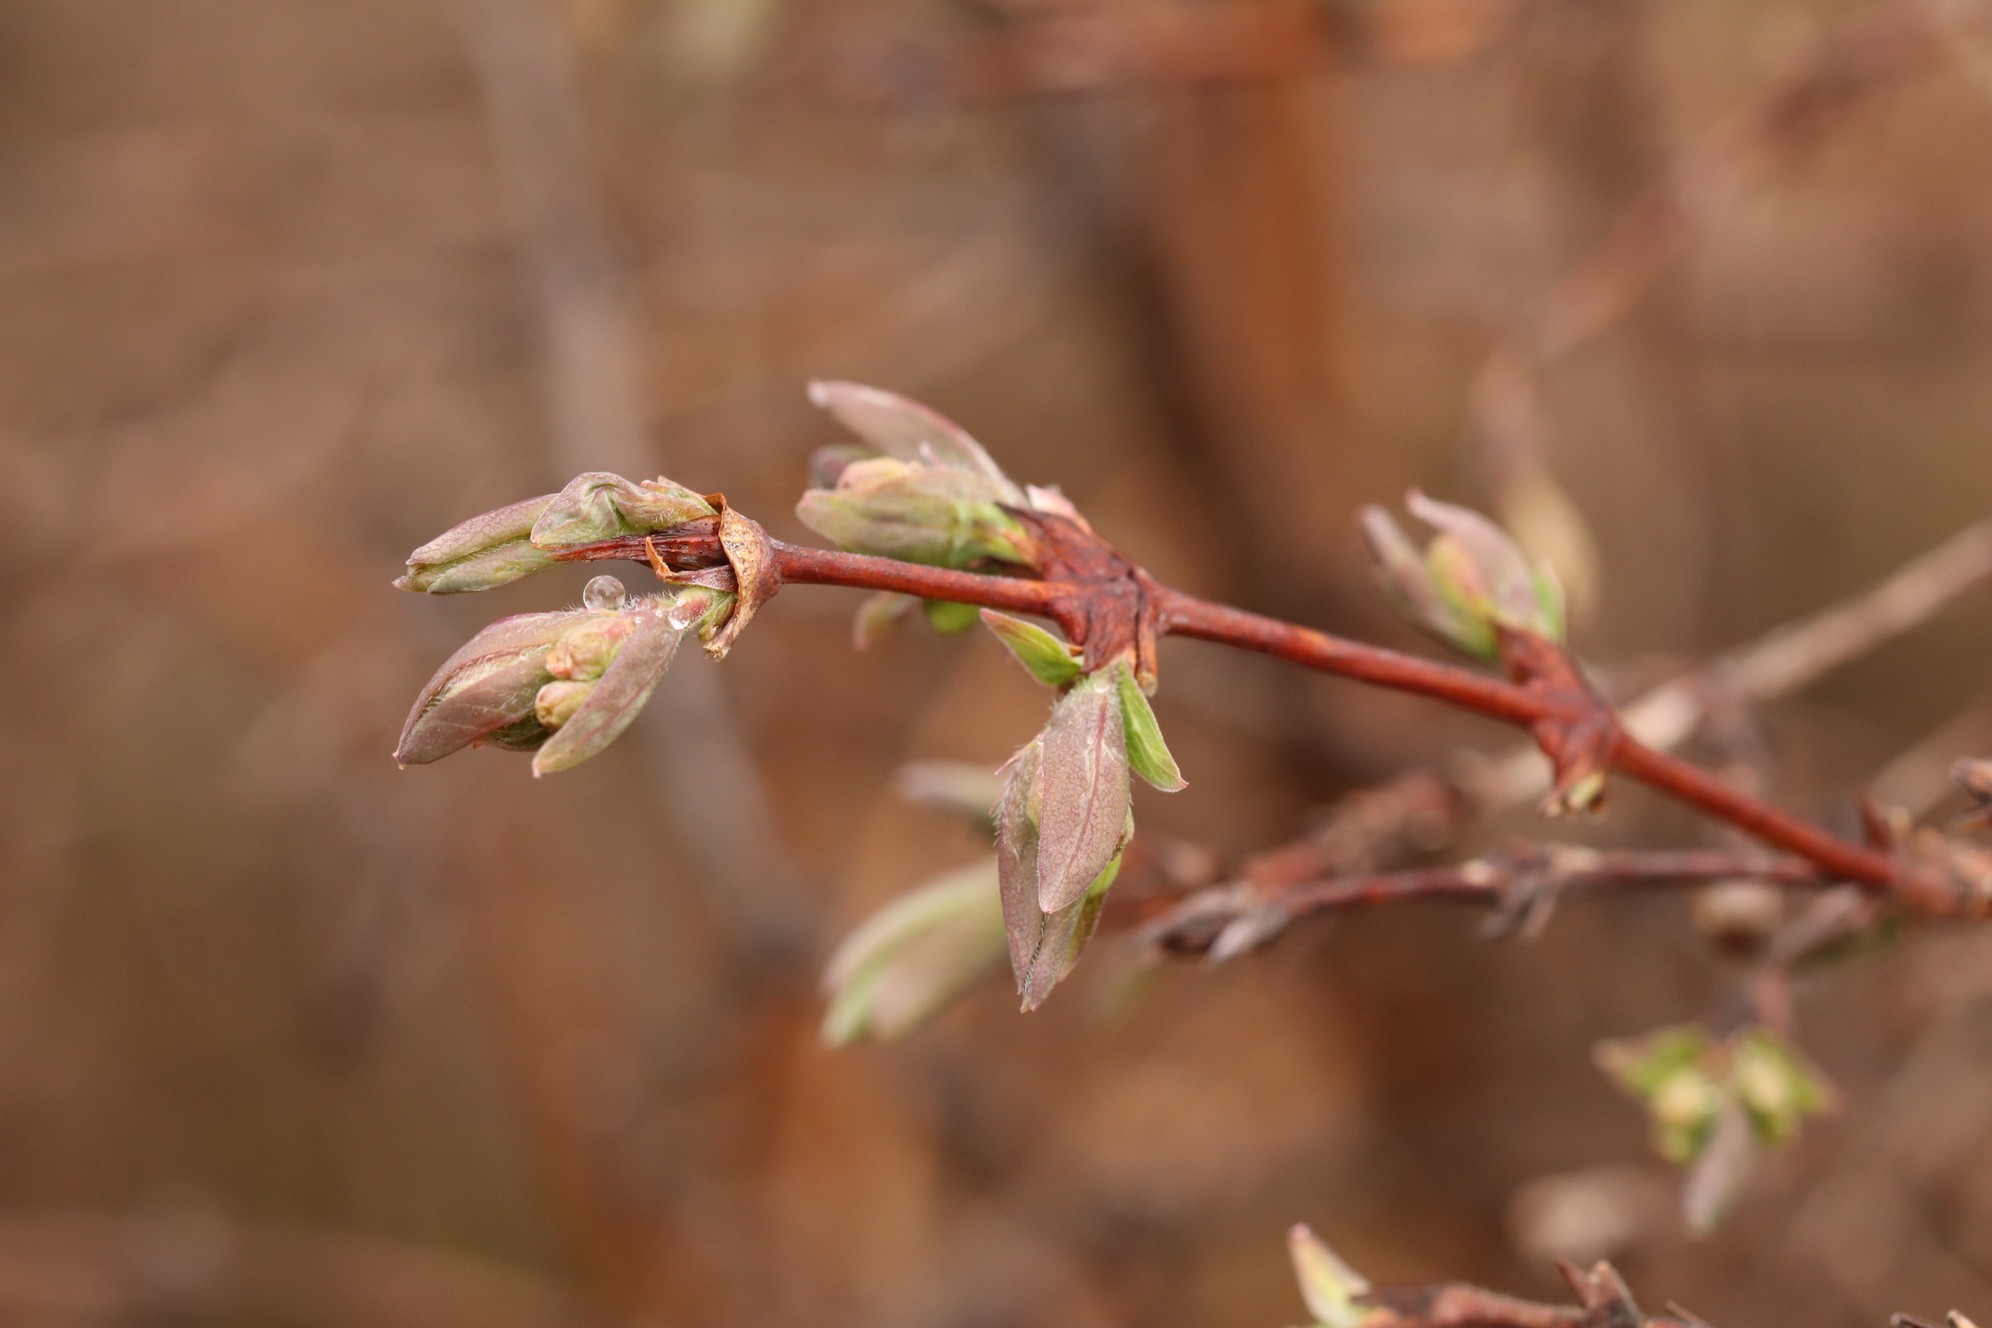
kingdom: Plantae
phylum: Tracheophyta
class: Magnoliopsida
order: Dipsacales
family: Caprifoliaceae
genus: Lonicera
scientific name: Lonicera caerulea
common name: Blue honeysuckle
